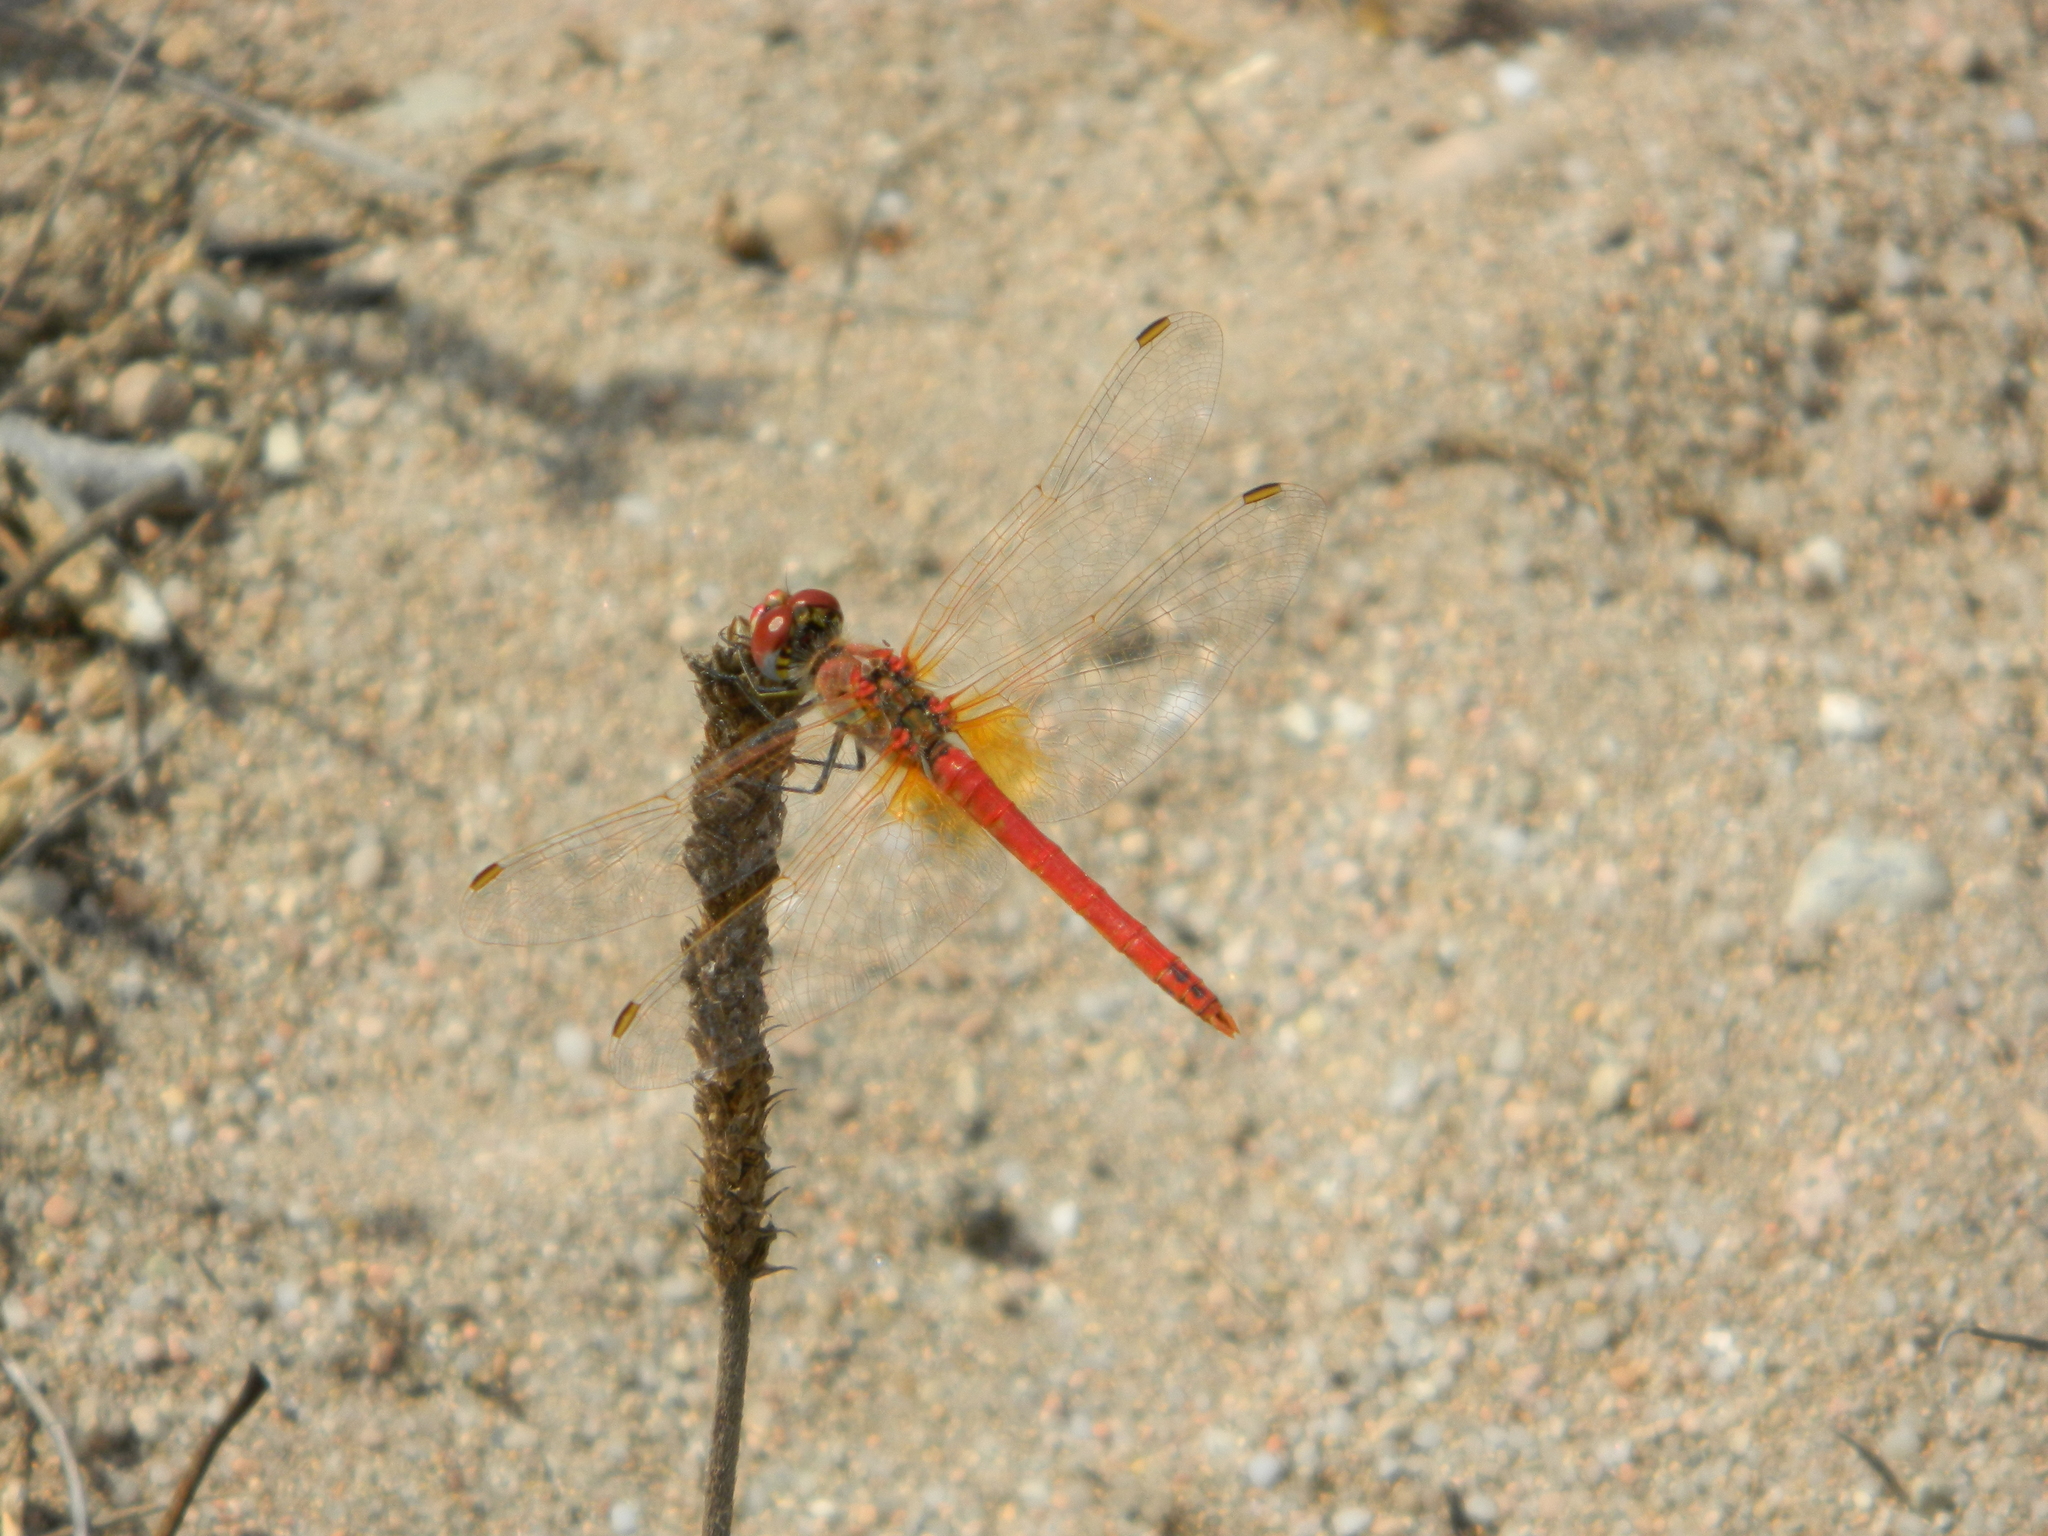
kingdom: Animalia
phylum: Arthropoda
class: Insecta
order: Odonata
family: Libellulidae
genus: Sympetrum
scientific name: Sympetrum fonscolombii
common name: Red-veined darter
